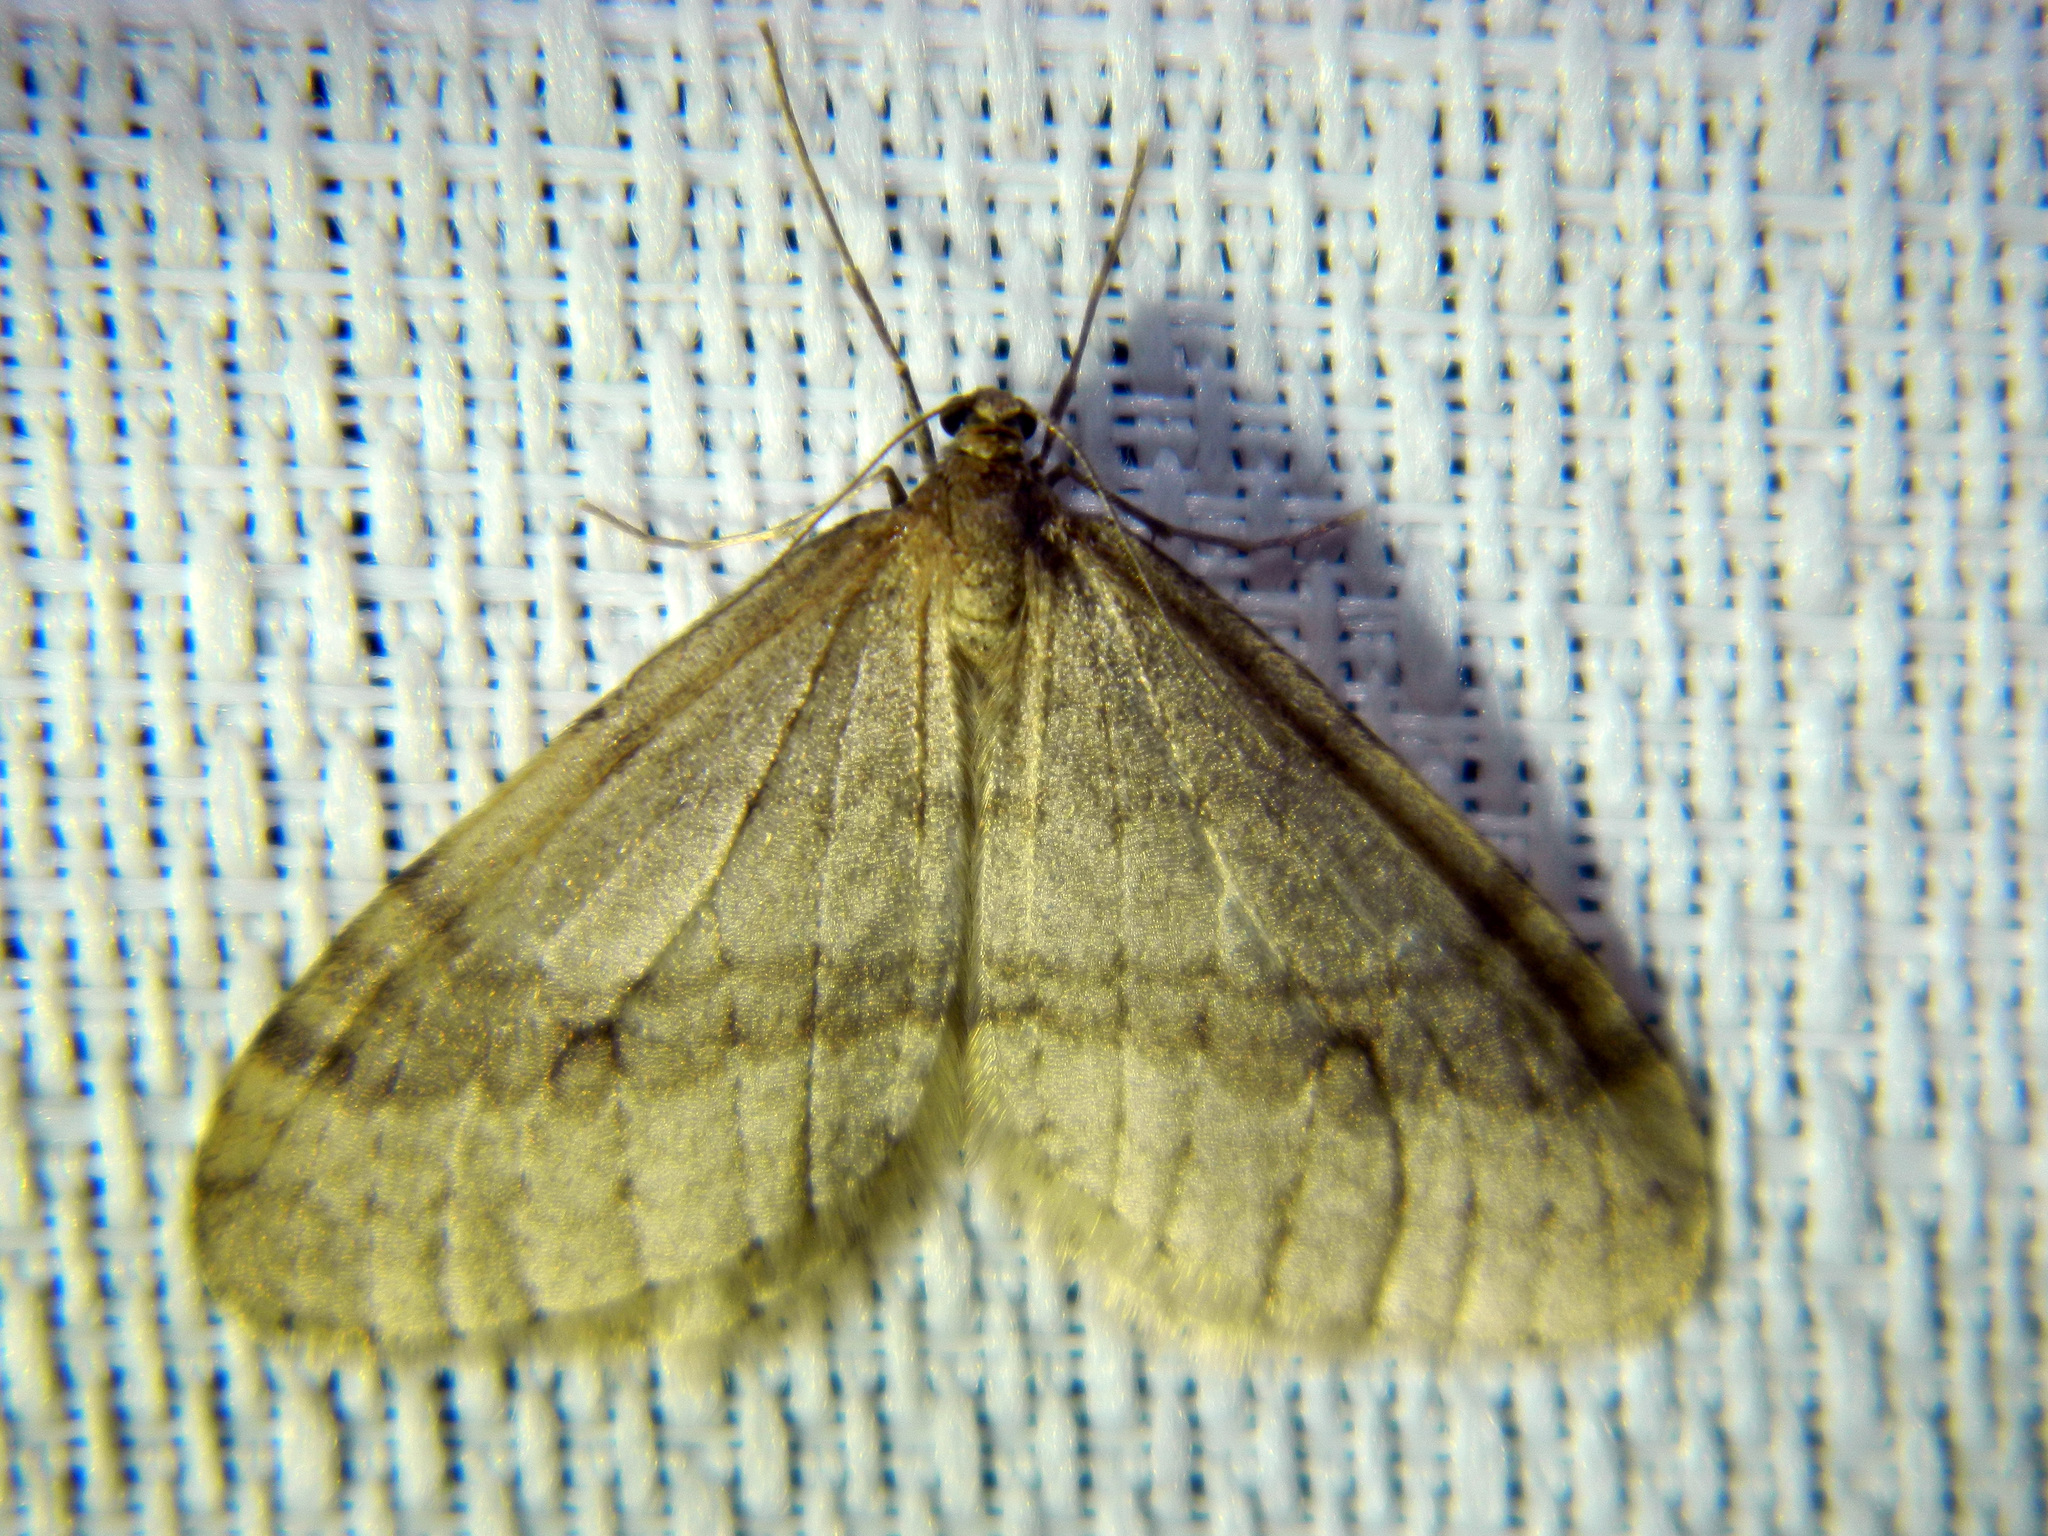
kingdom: Animalia
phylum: Arthropoda
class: Insecta
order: Lepidoptera
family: Geometridae
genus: Operophtera
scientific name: Operophtera bruceata
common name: Bruce spanworm
